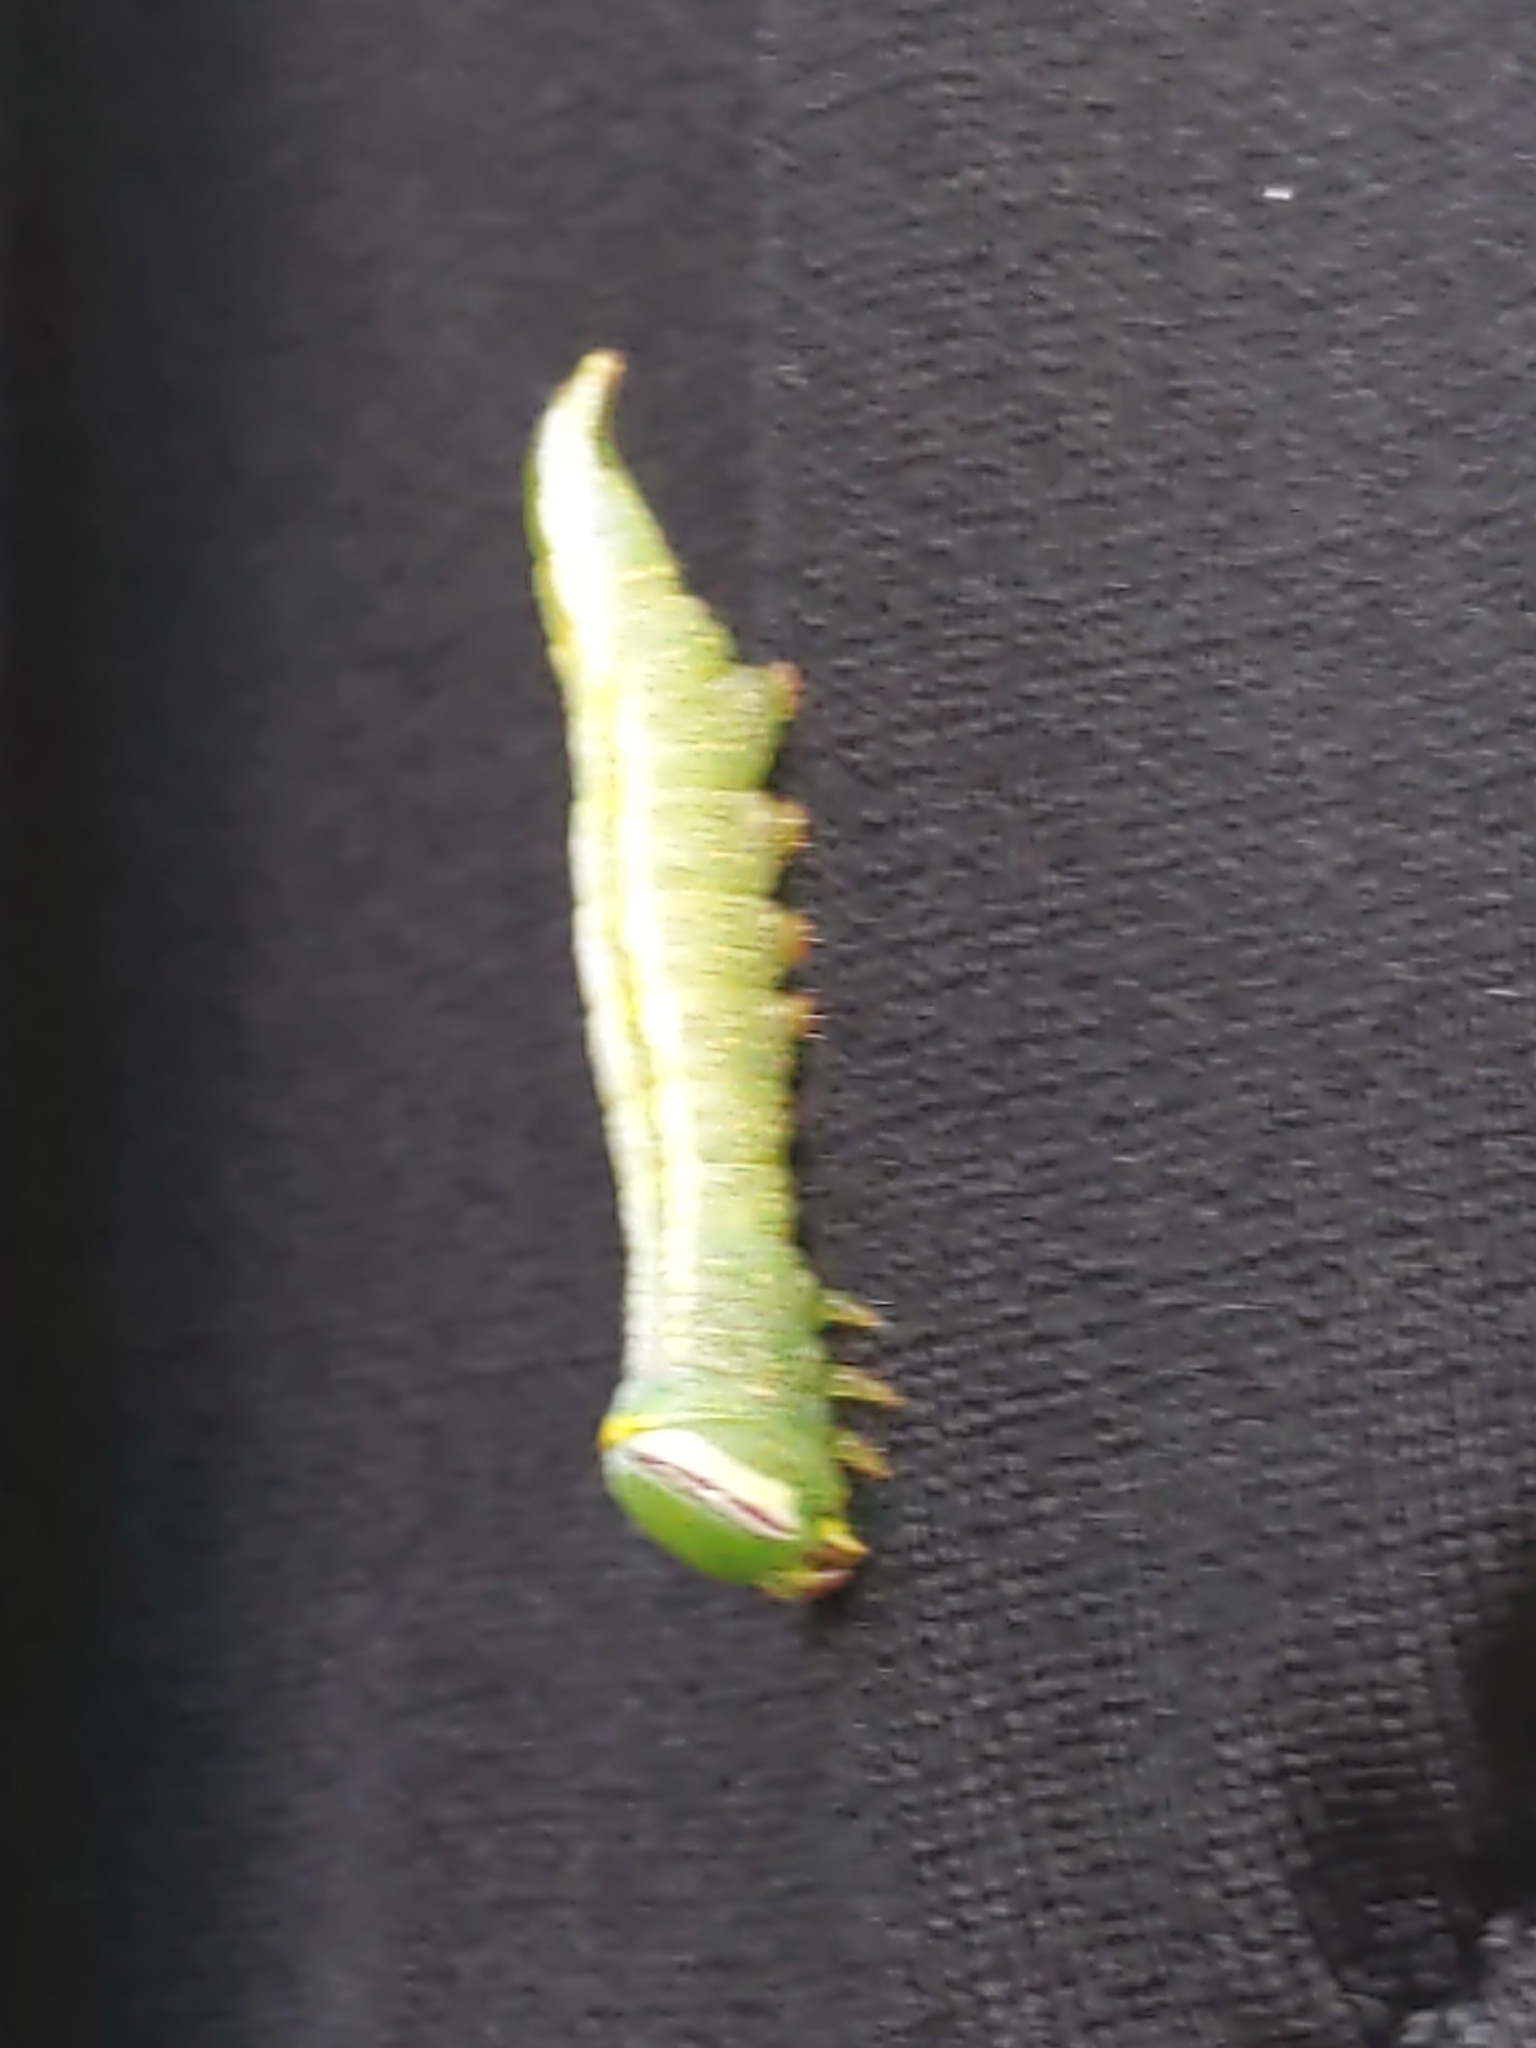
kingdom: Animalia
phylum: Arthropoda
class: Insecta
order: Lepidoptera
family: Notodontidae
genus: Disphragis
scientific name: Disphragis Cecrita guttivitta
